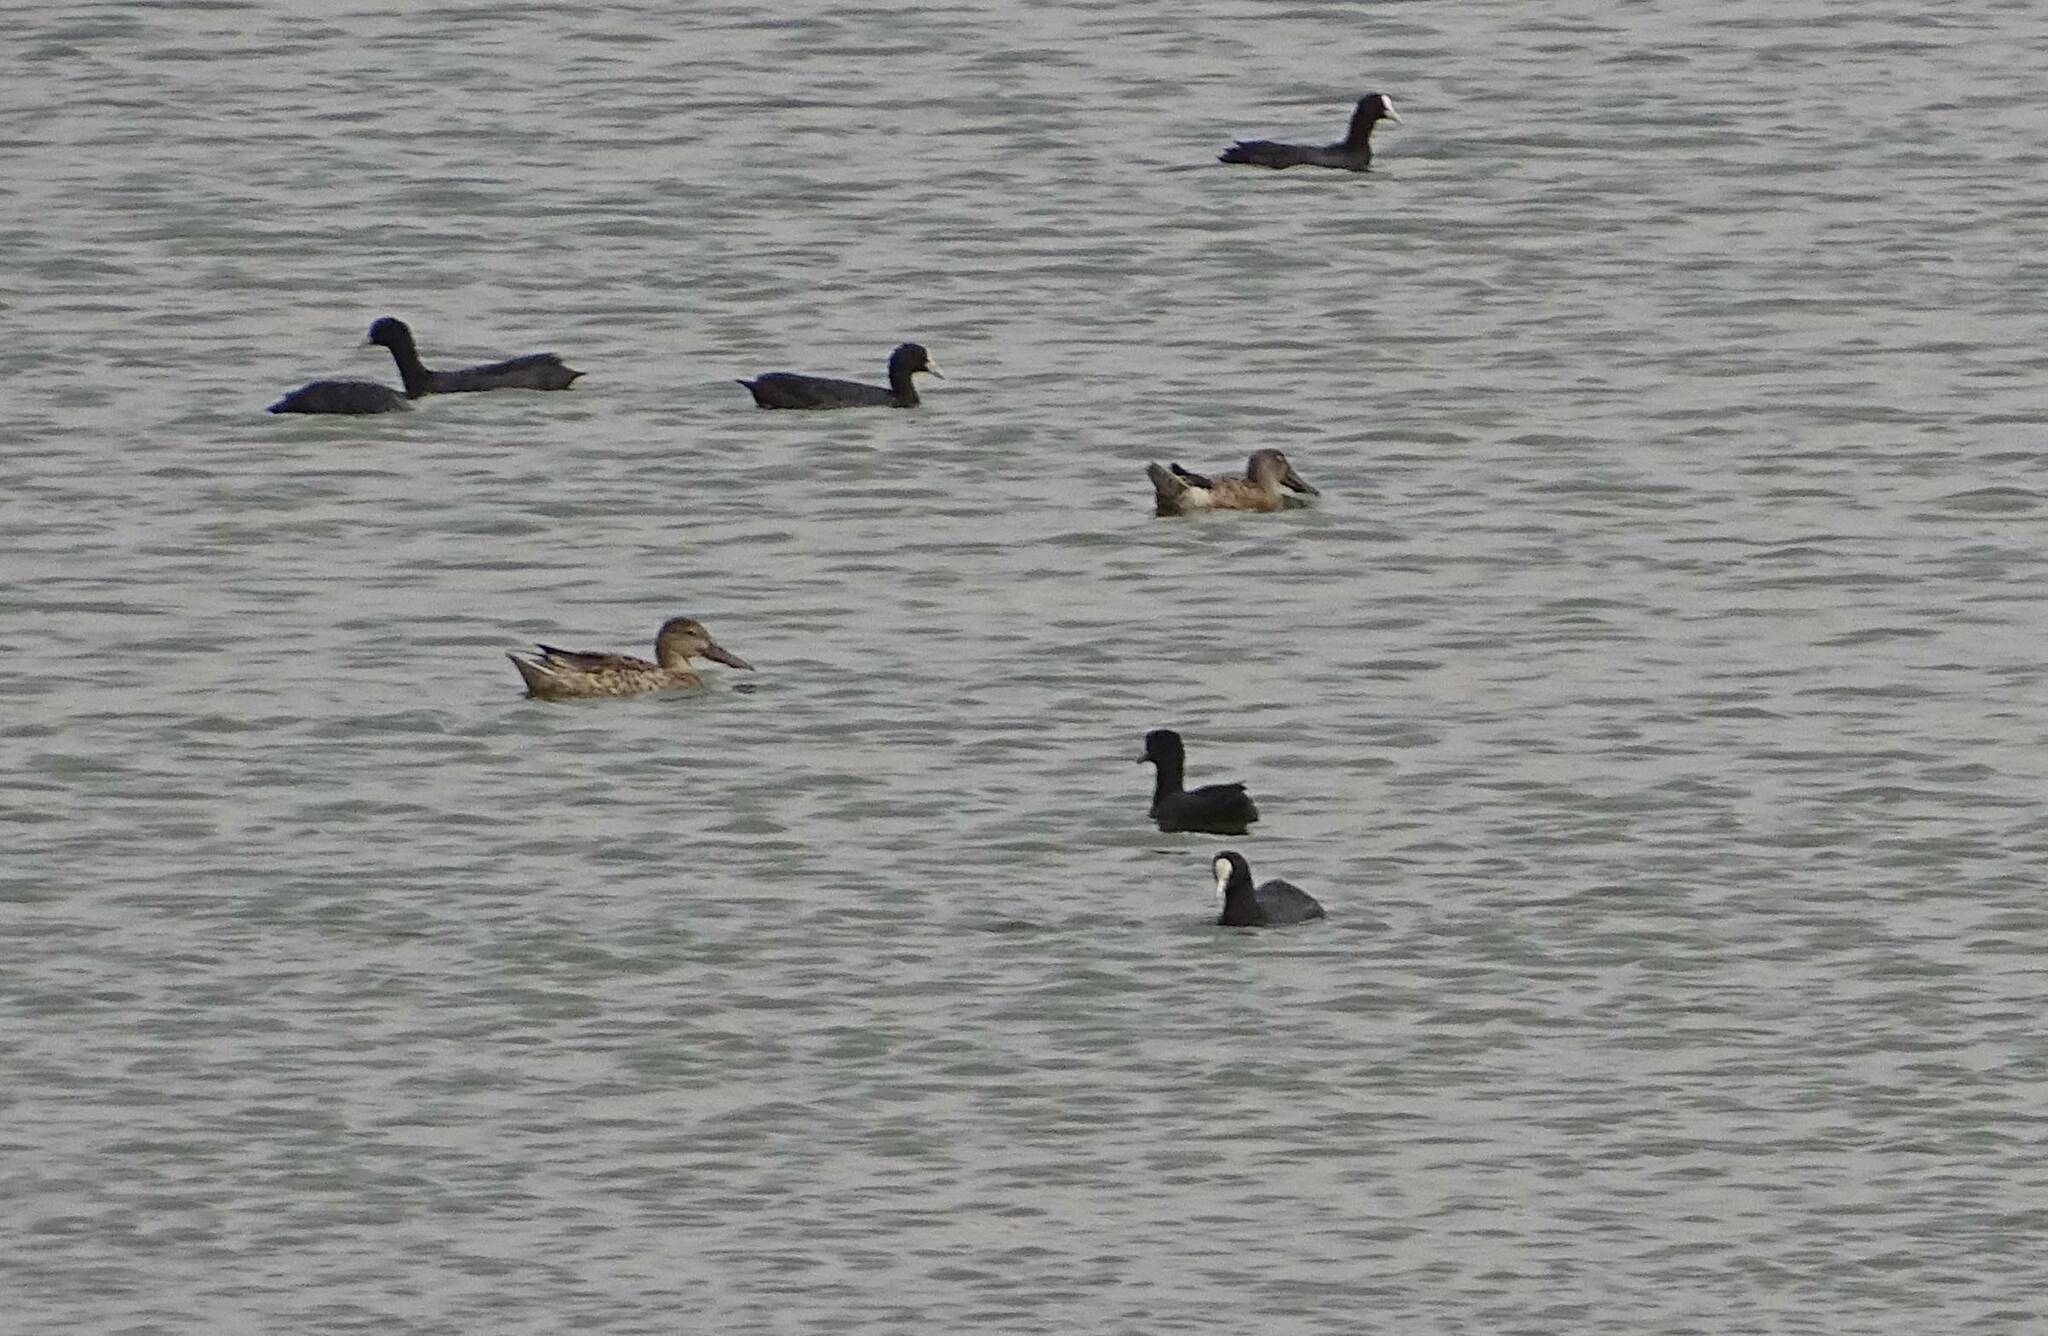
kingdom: Animalia
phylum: Chordata
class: Aves
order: Anseriformes
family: Anatidae
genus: Spatula
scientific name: Spatula clypeata
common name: Northern shoveler
